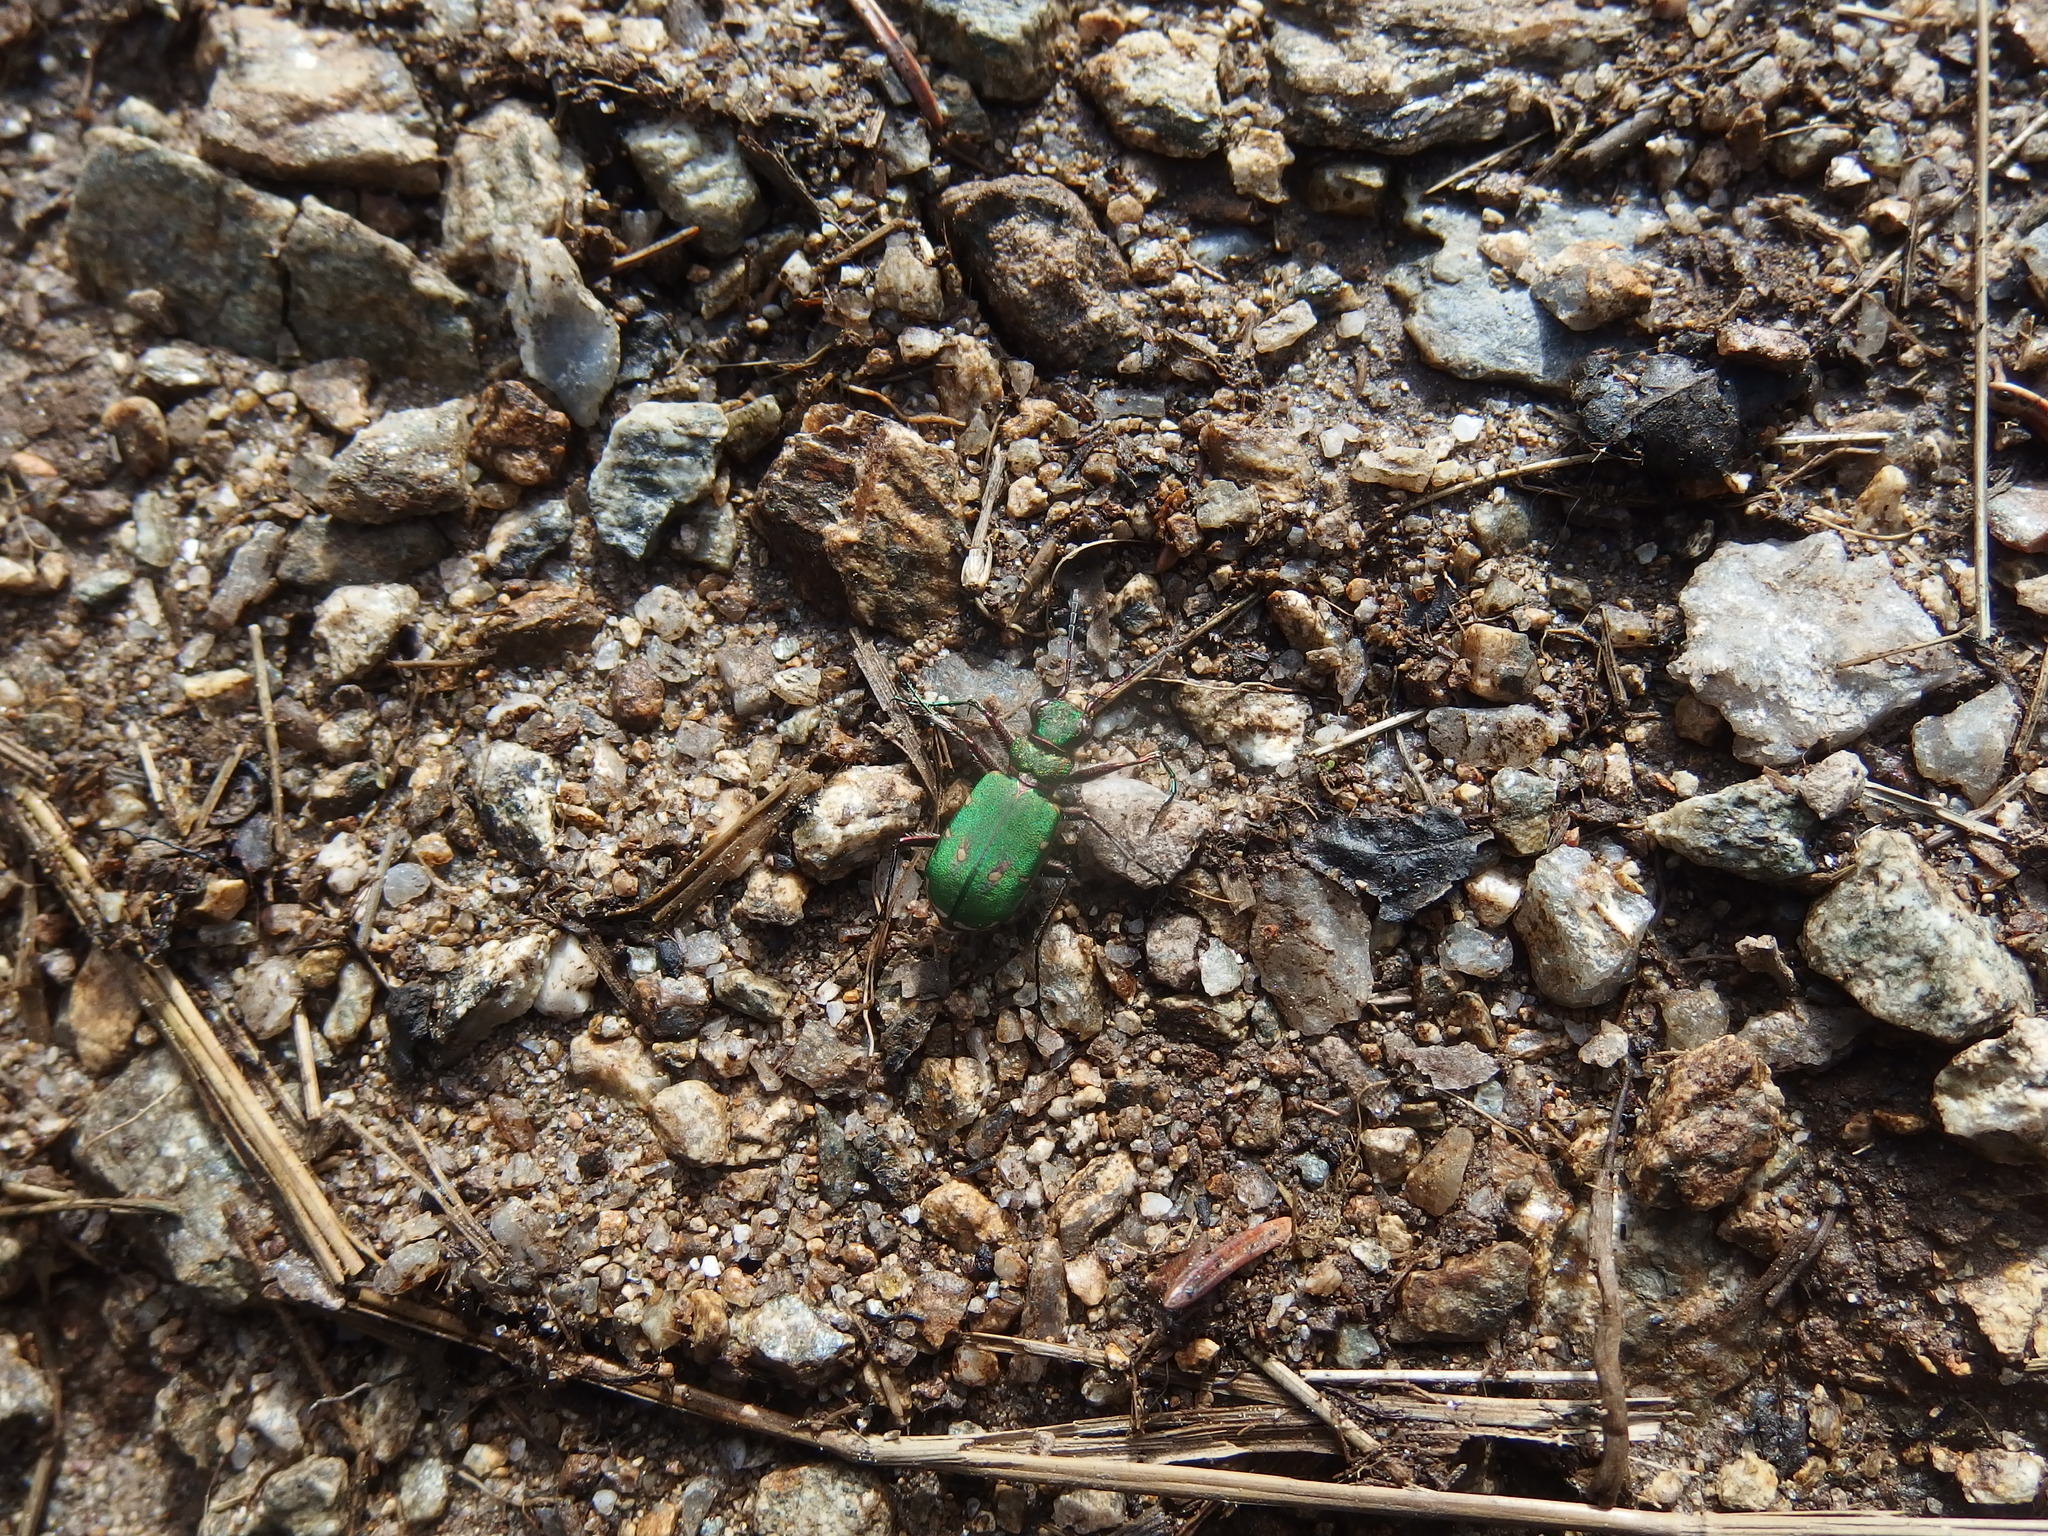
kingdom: Animalia
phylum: Arthropoda
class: Insecta
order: Coleoptera
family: Carabidae
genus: Cicindela
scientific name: Cicindela campestris
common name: Common tiger beetle
